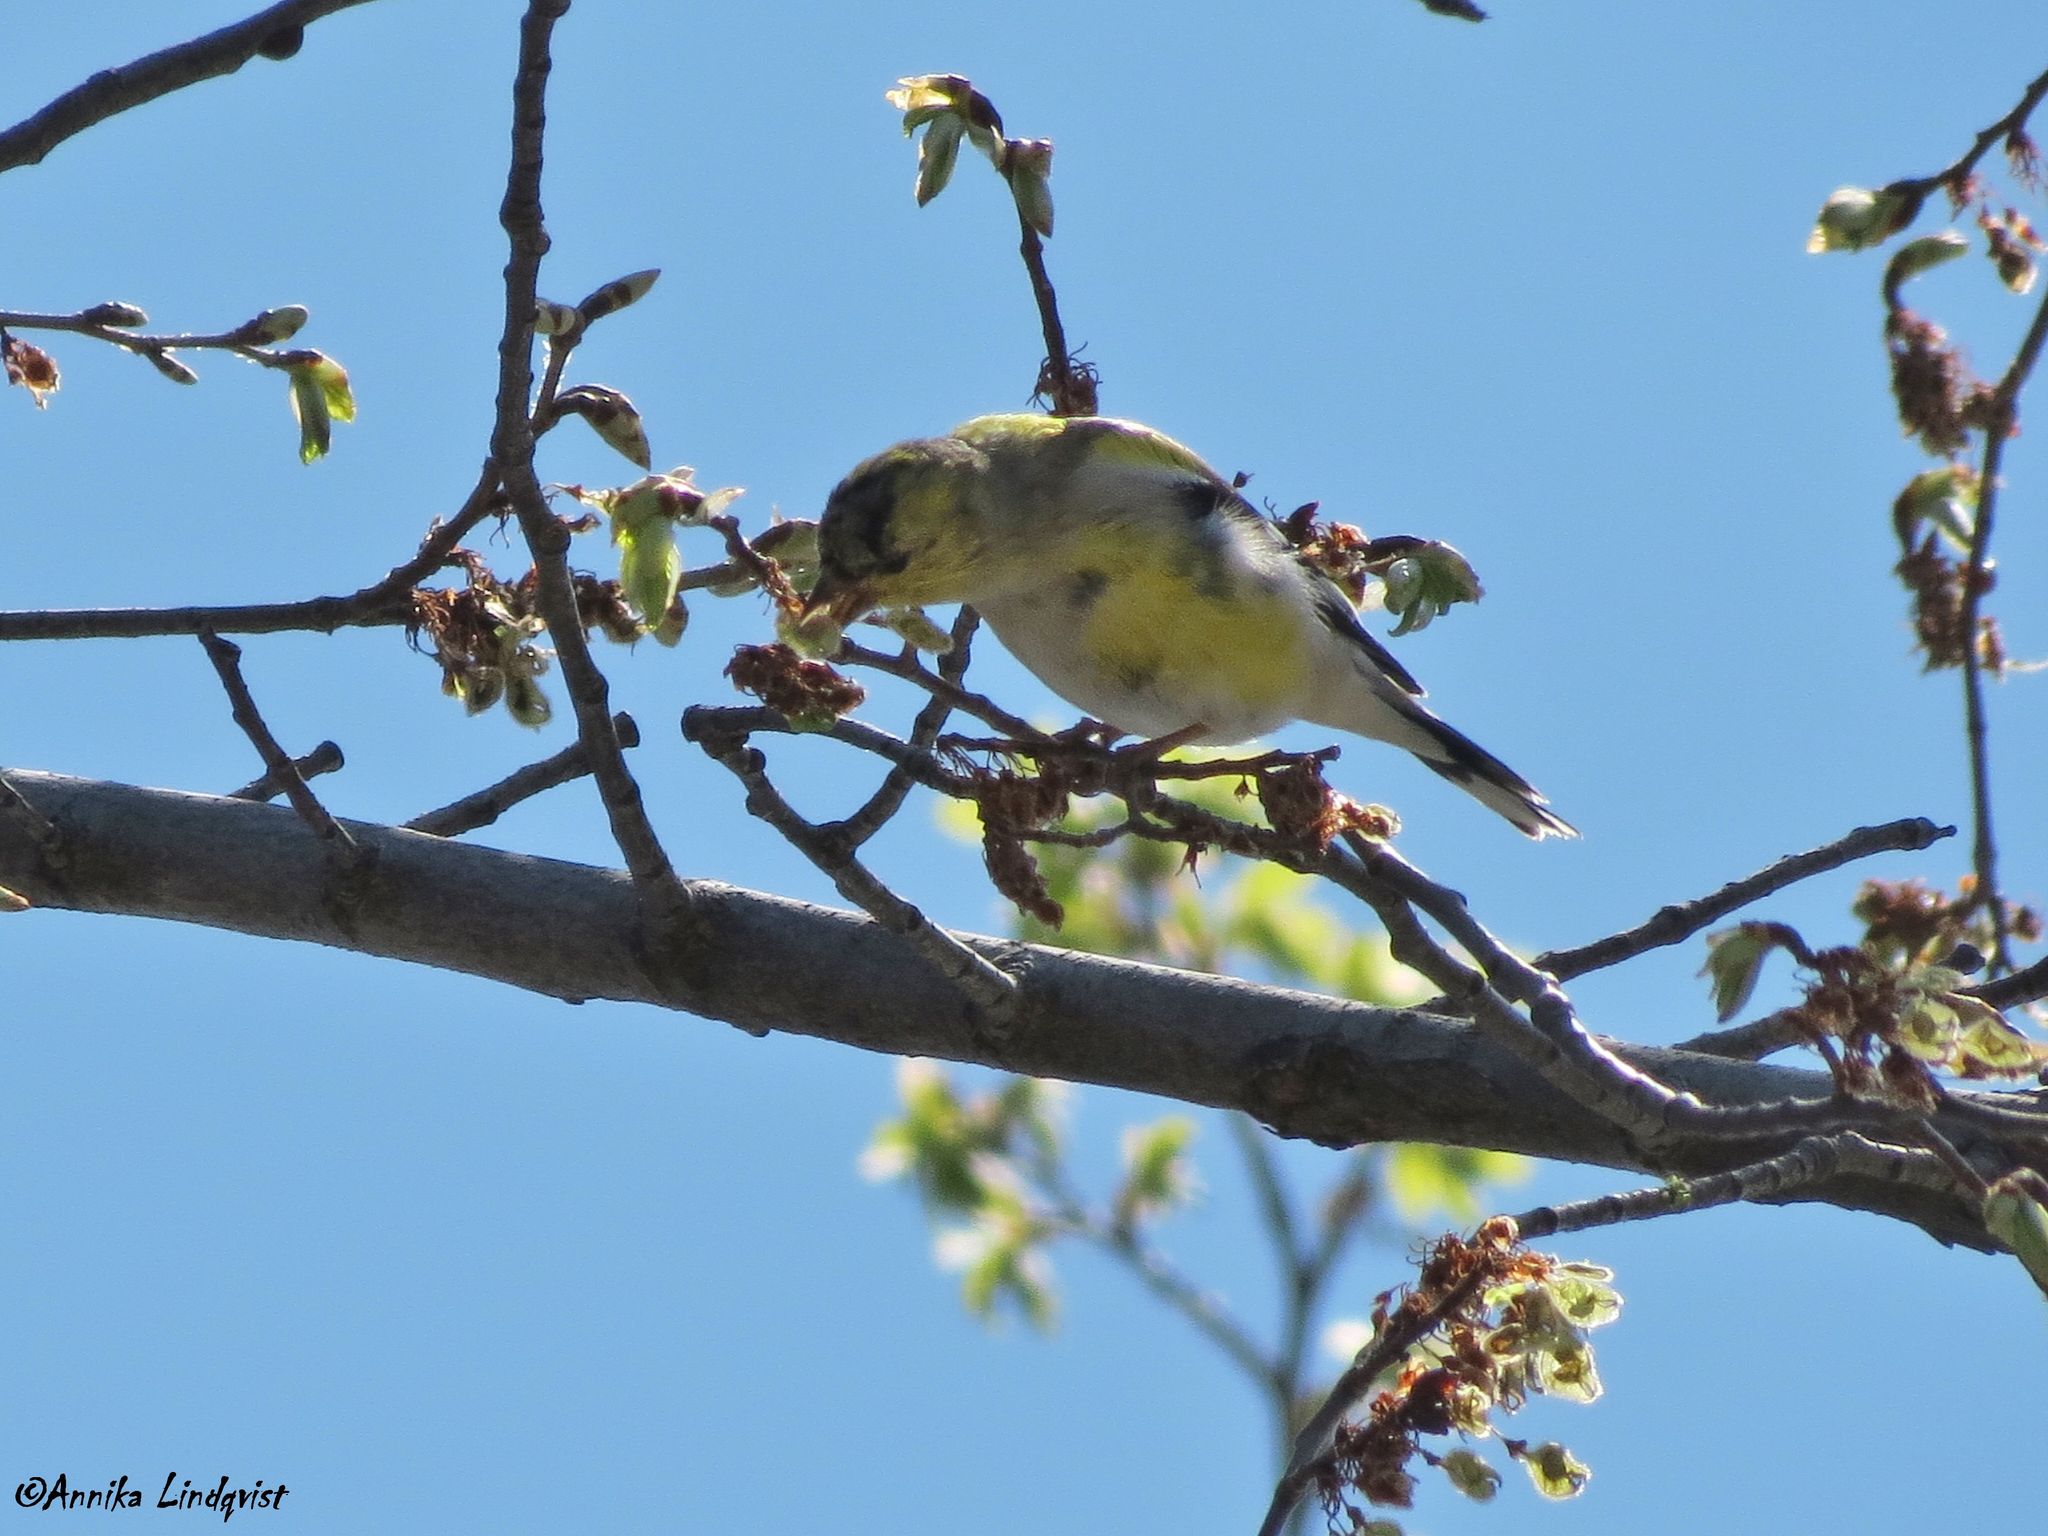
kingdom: Animalia
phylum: Chordata
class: Aves
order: Passeriformes
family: Fringillidae
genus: Spinus
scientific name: Spinus tristis
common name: American goldfinch
